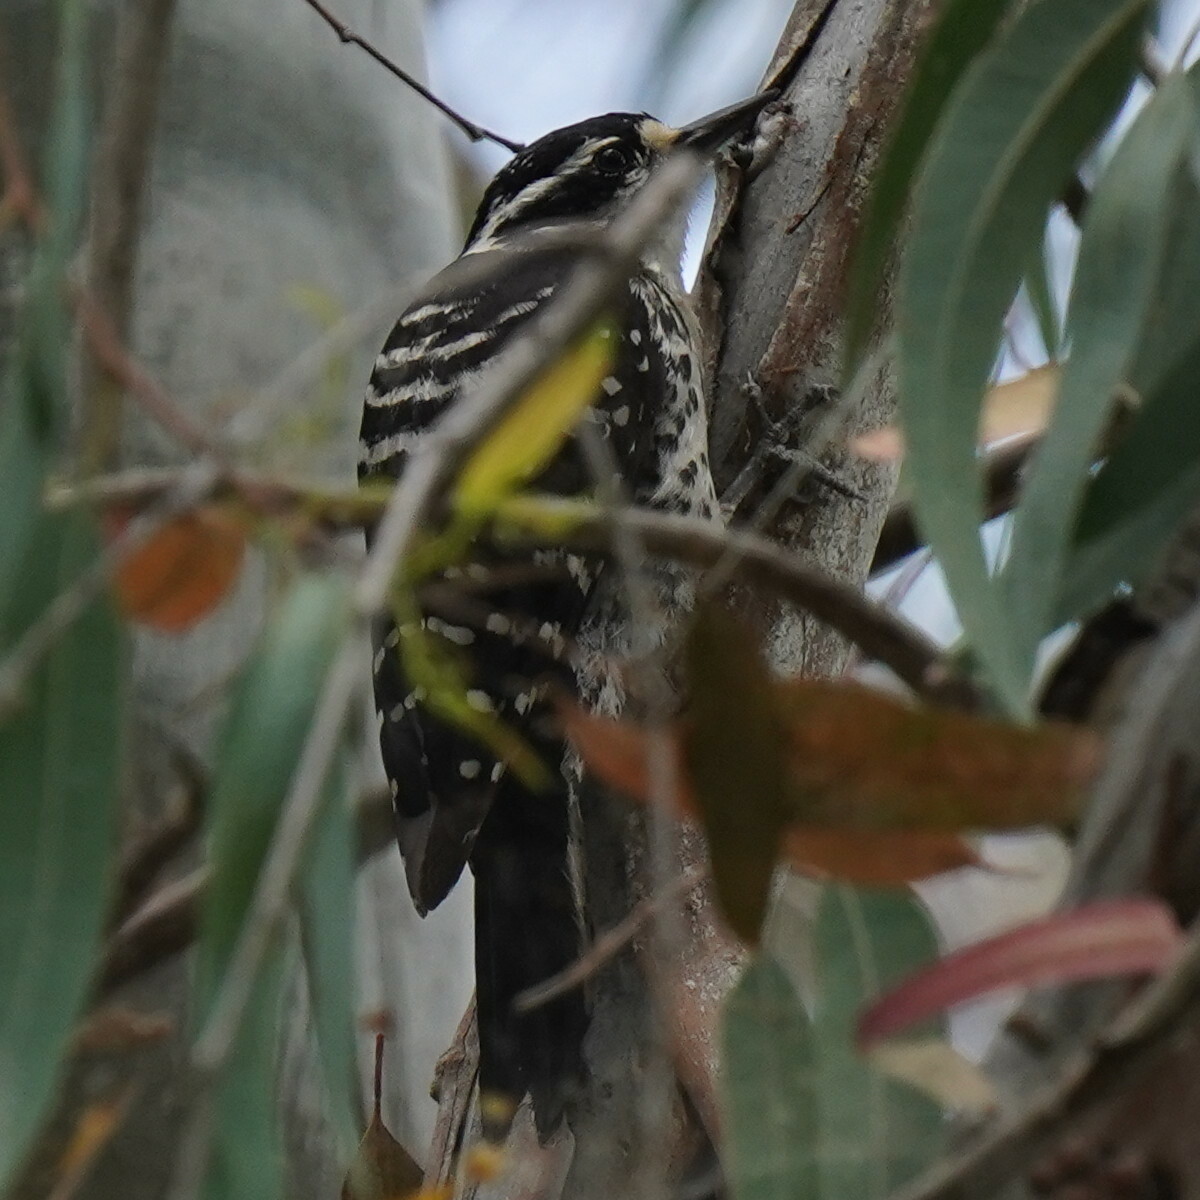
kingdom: Animalia
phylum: Chordata
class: Aves
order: Piciformes
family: Picidae
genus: Dryobates
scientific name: Dryobates nuttallii
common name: Nuttall's woodpecker
